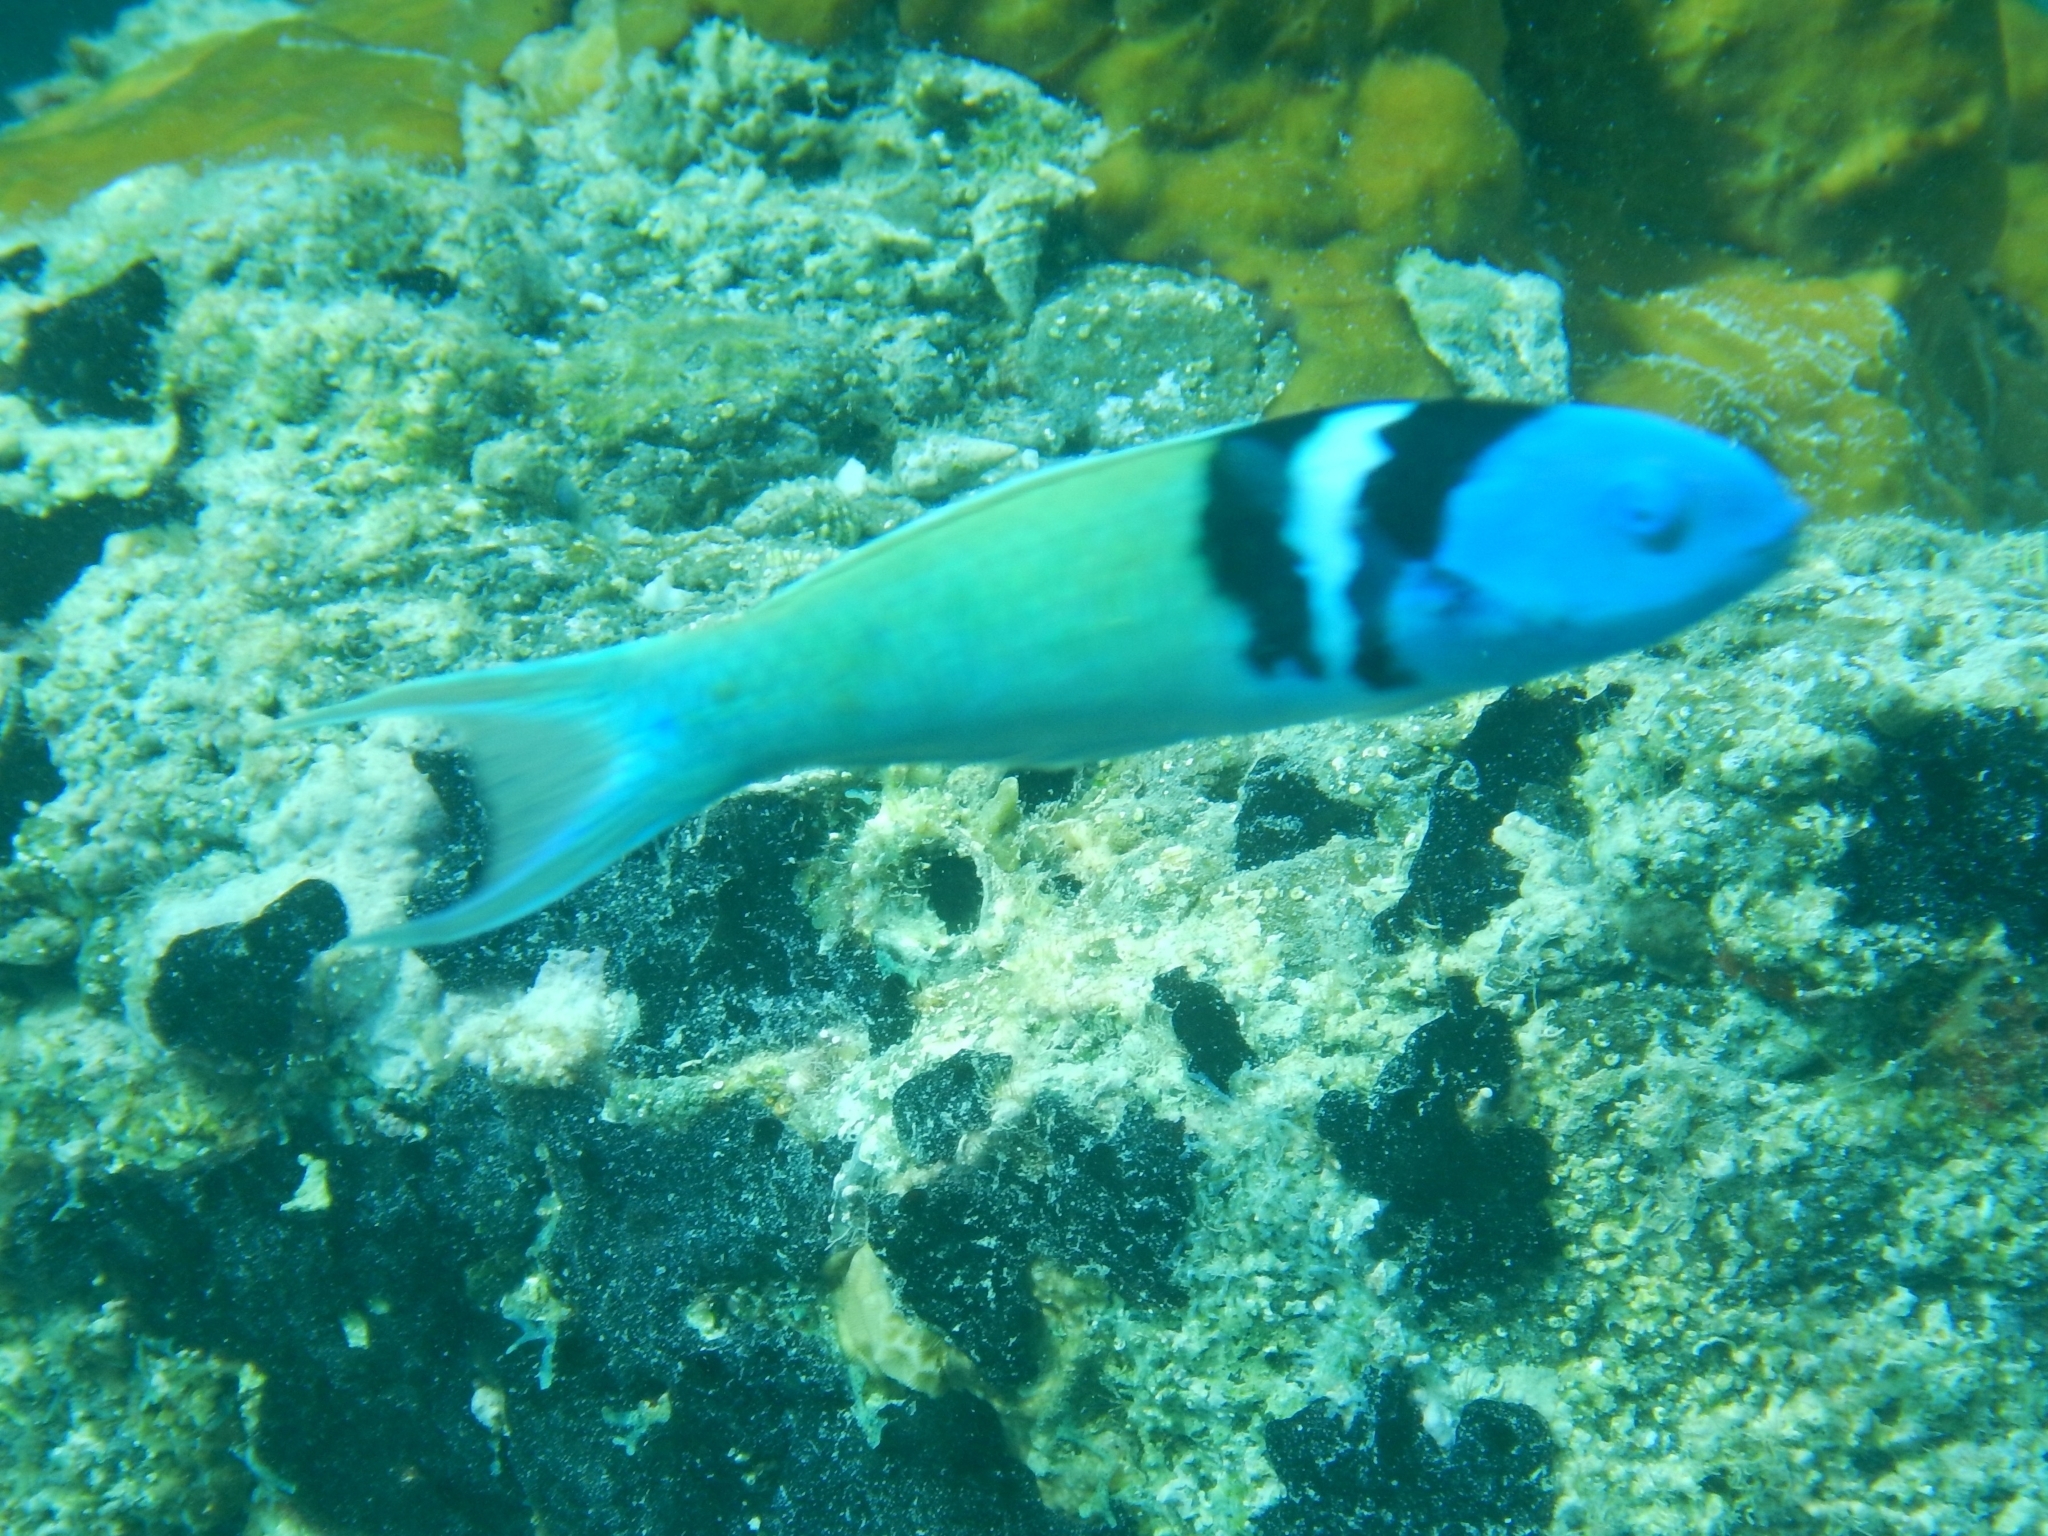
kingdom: Animalia
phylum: Chordata
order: Perciformes
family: Labridae
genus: Thalassoma
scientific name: Thalassoma bifasciatum
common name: Bluehead wrasse
